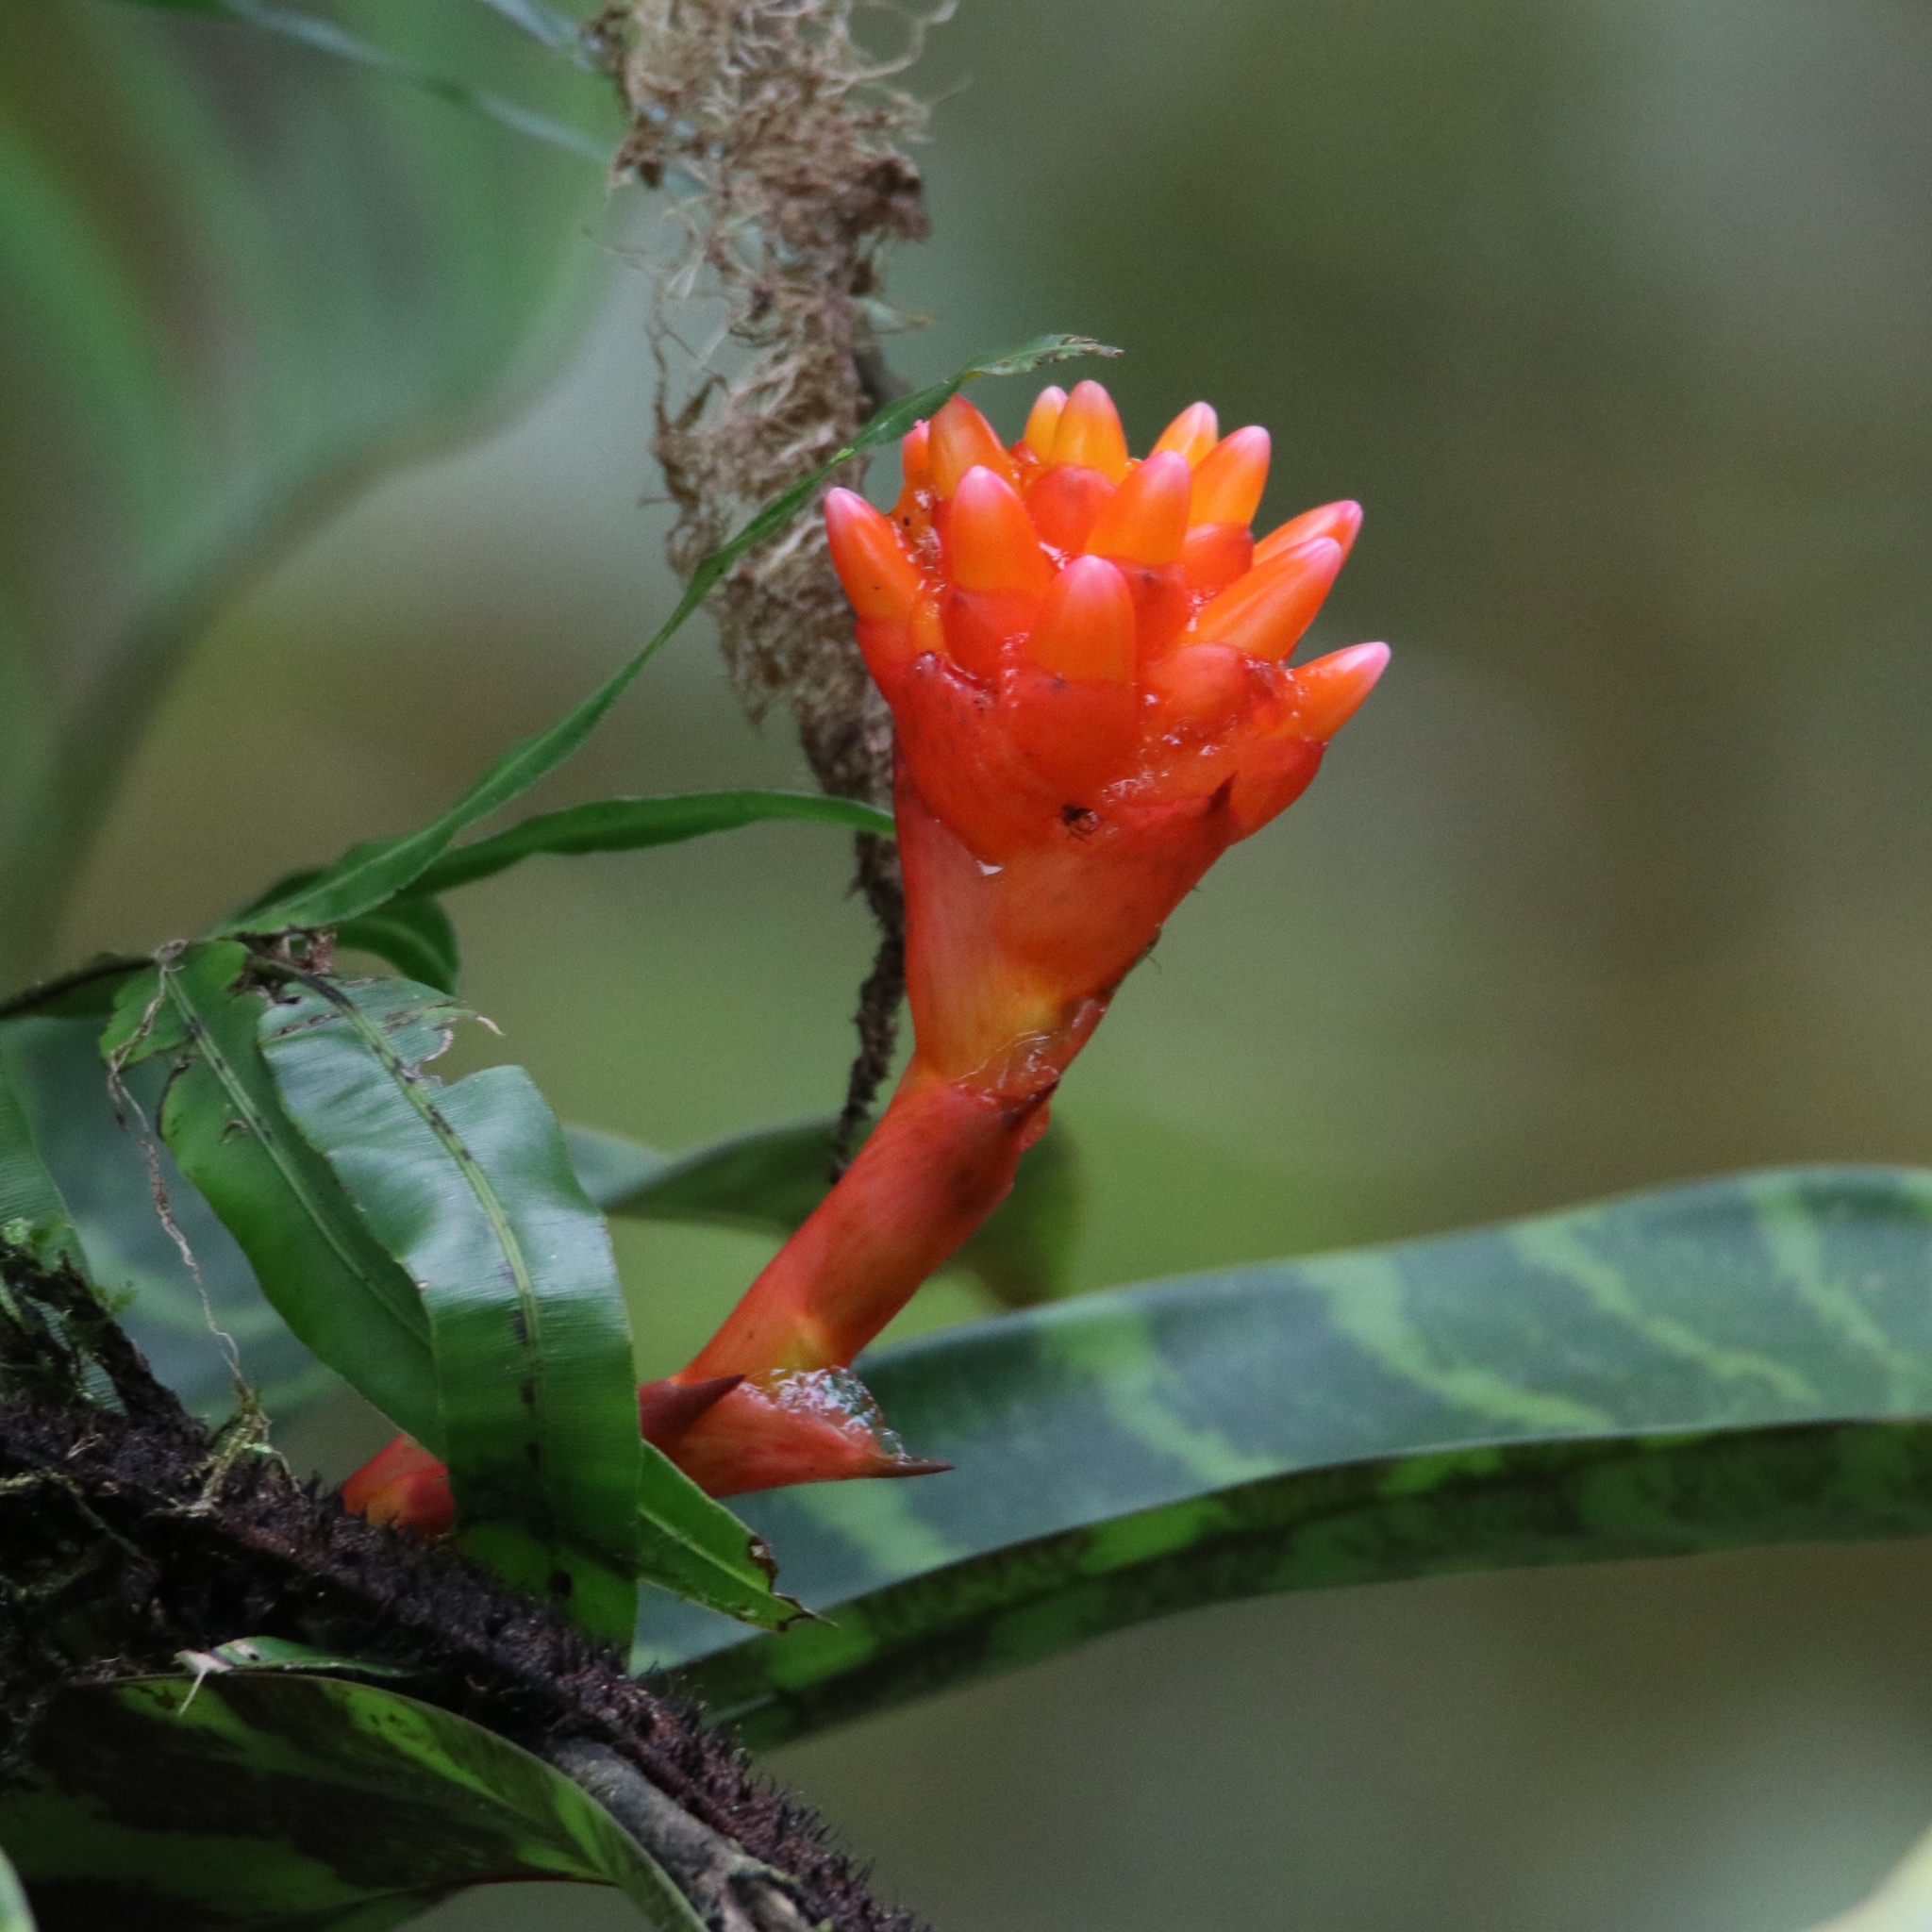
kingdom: Plantae
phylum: Tracheophyta
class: Liliopsida
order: Poales
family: Bromeliaceae
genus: Guzmania
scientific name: Guzmania musaica
